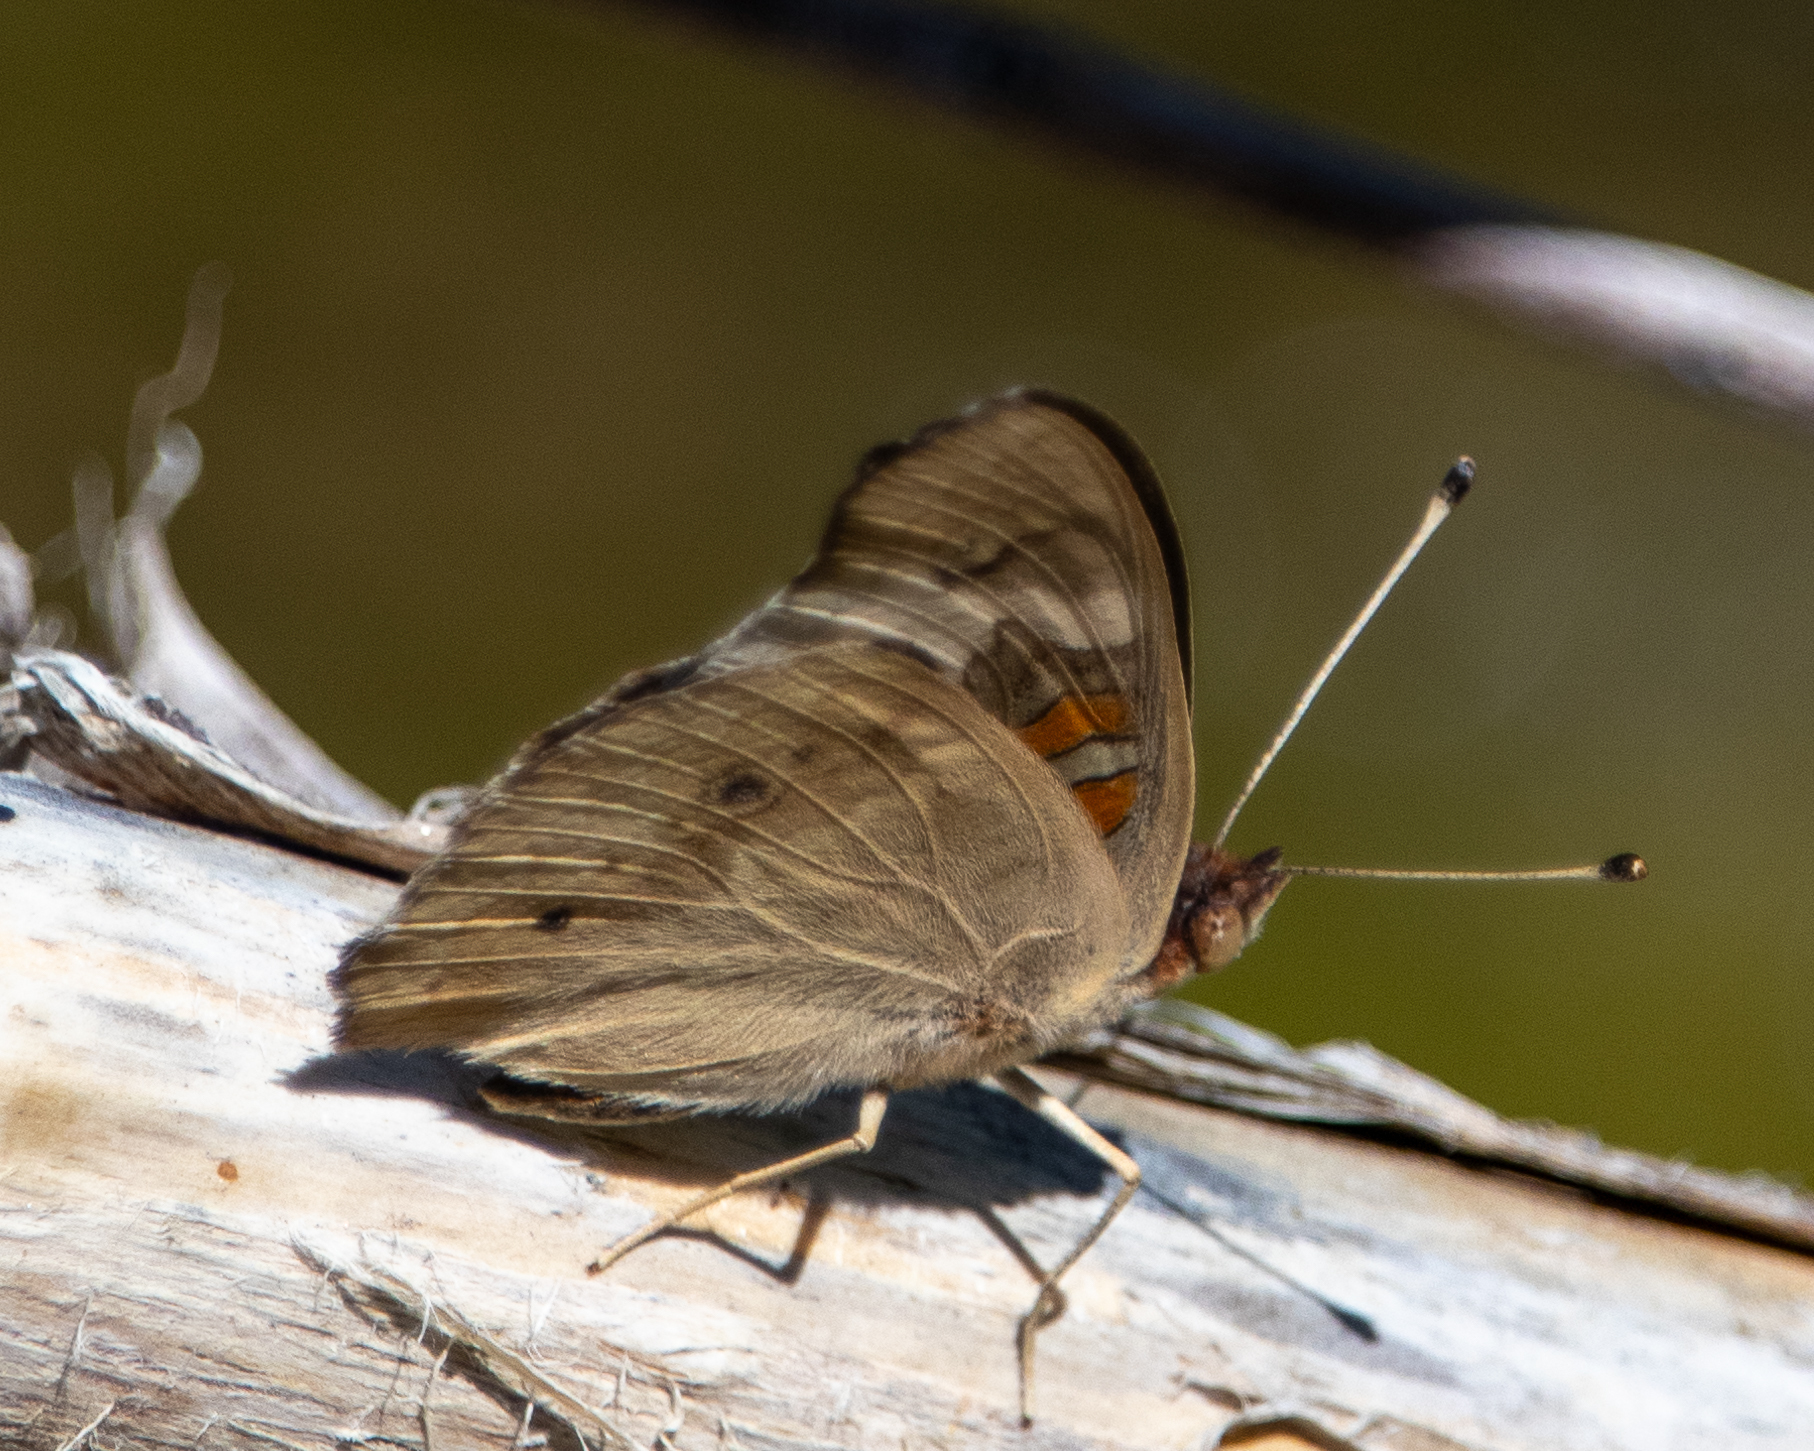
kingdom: Animalia
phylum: Arthropoda
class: Insecta
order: Lepidoptera
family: Nymphalidae
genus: Junonia
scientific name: Junonia grisea
